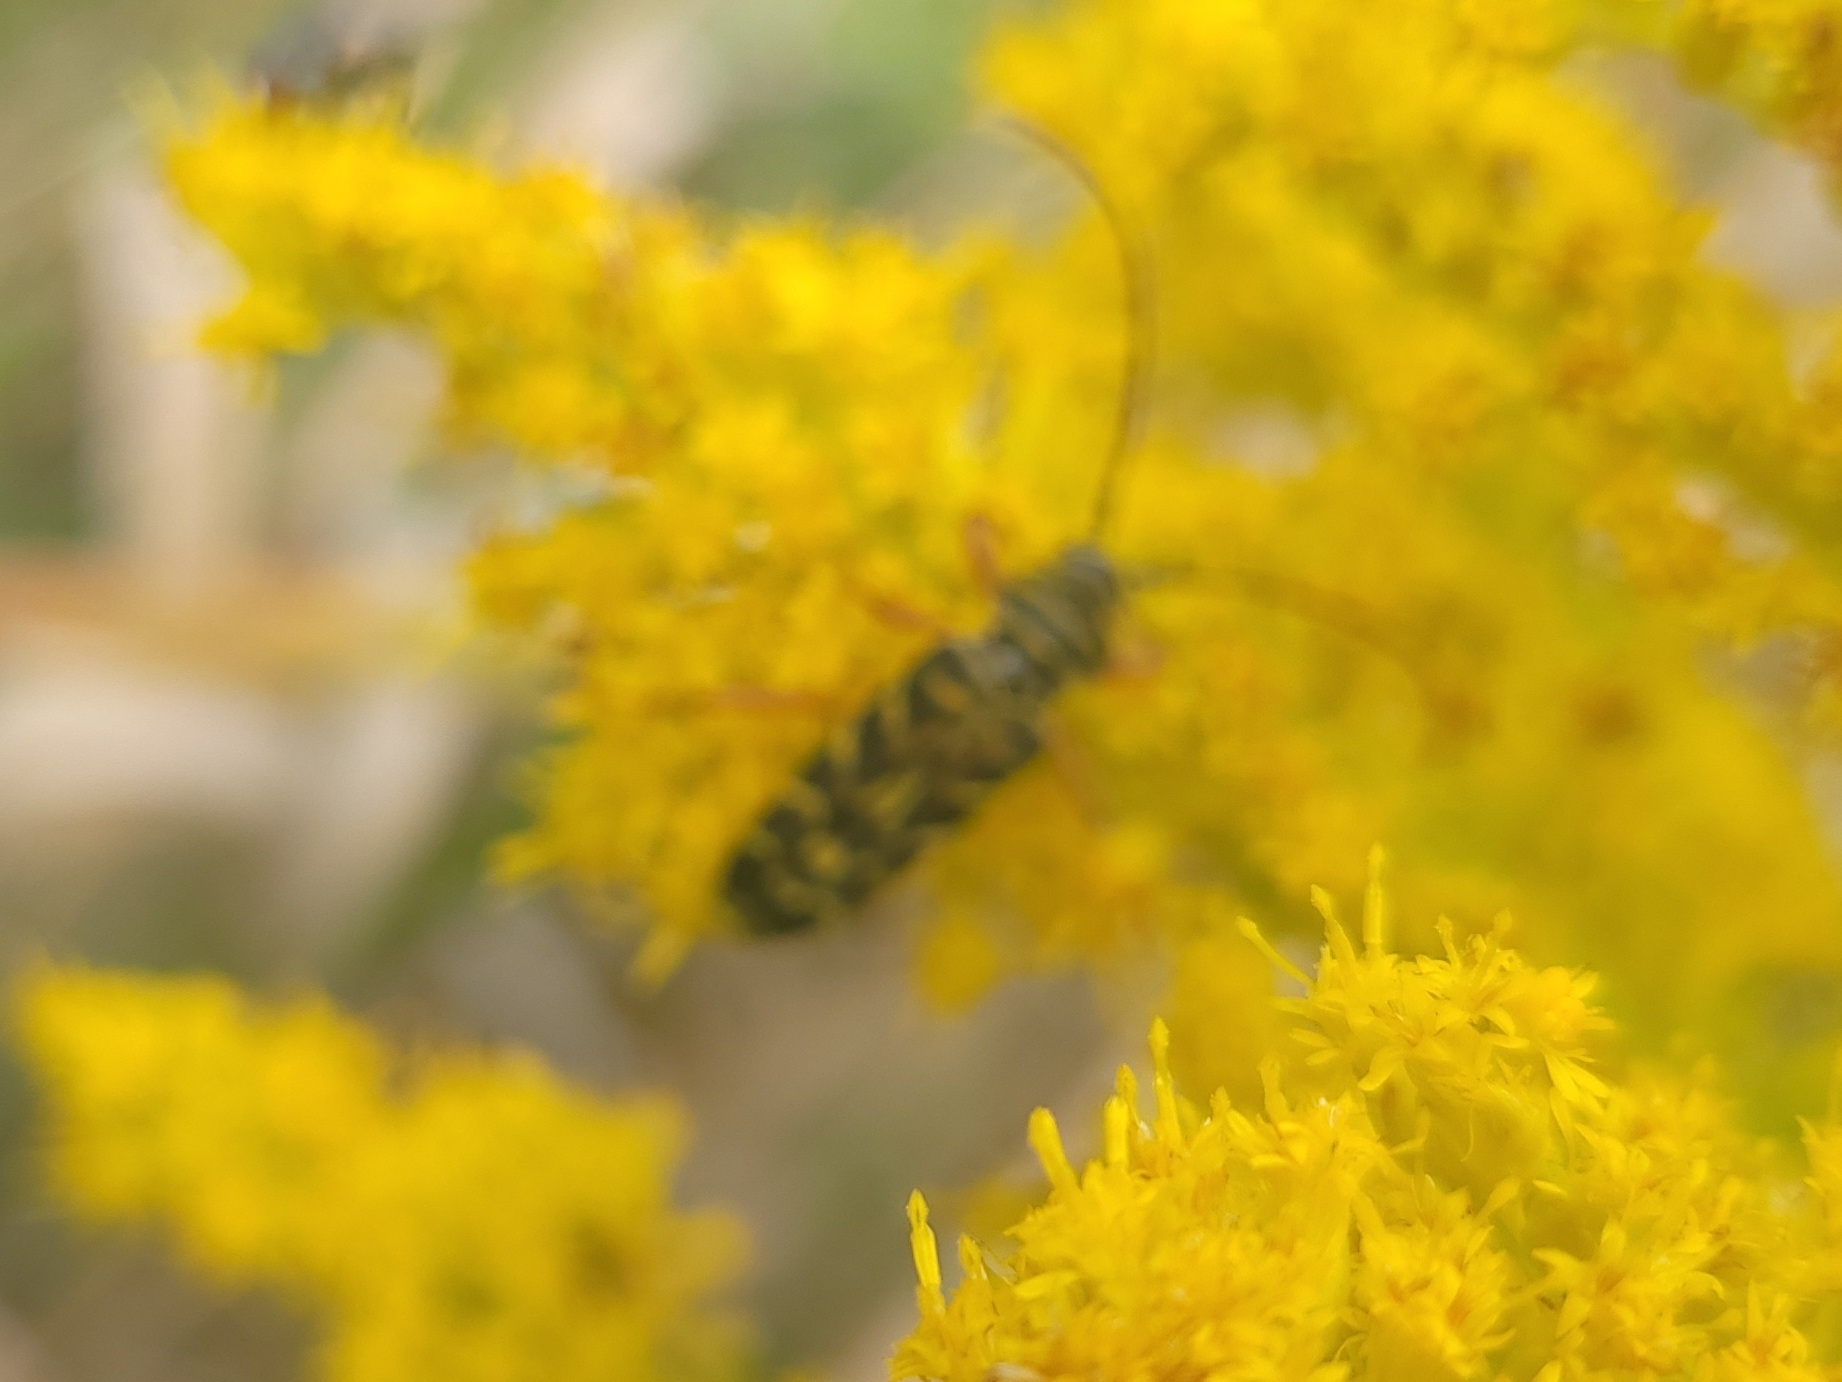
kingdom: Animalia
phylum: Arthropoda
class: Insecta
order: Coleoptera
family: Cerambycidae
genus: Megacyllene
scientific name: Megacyllene robiniae
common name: Locust borer
